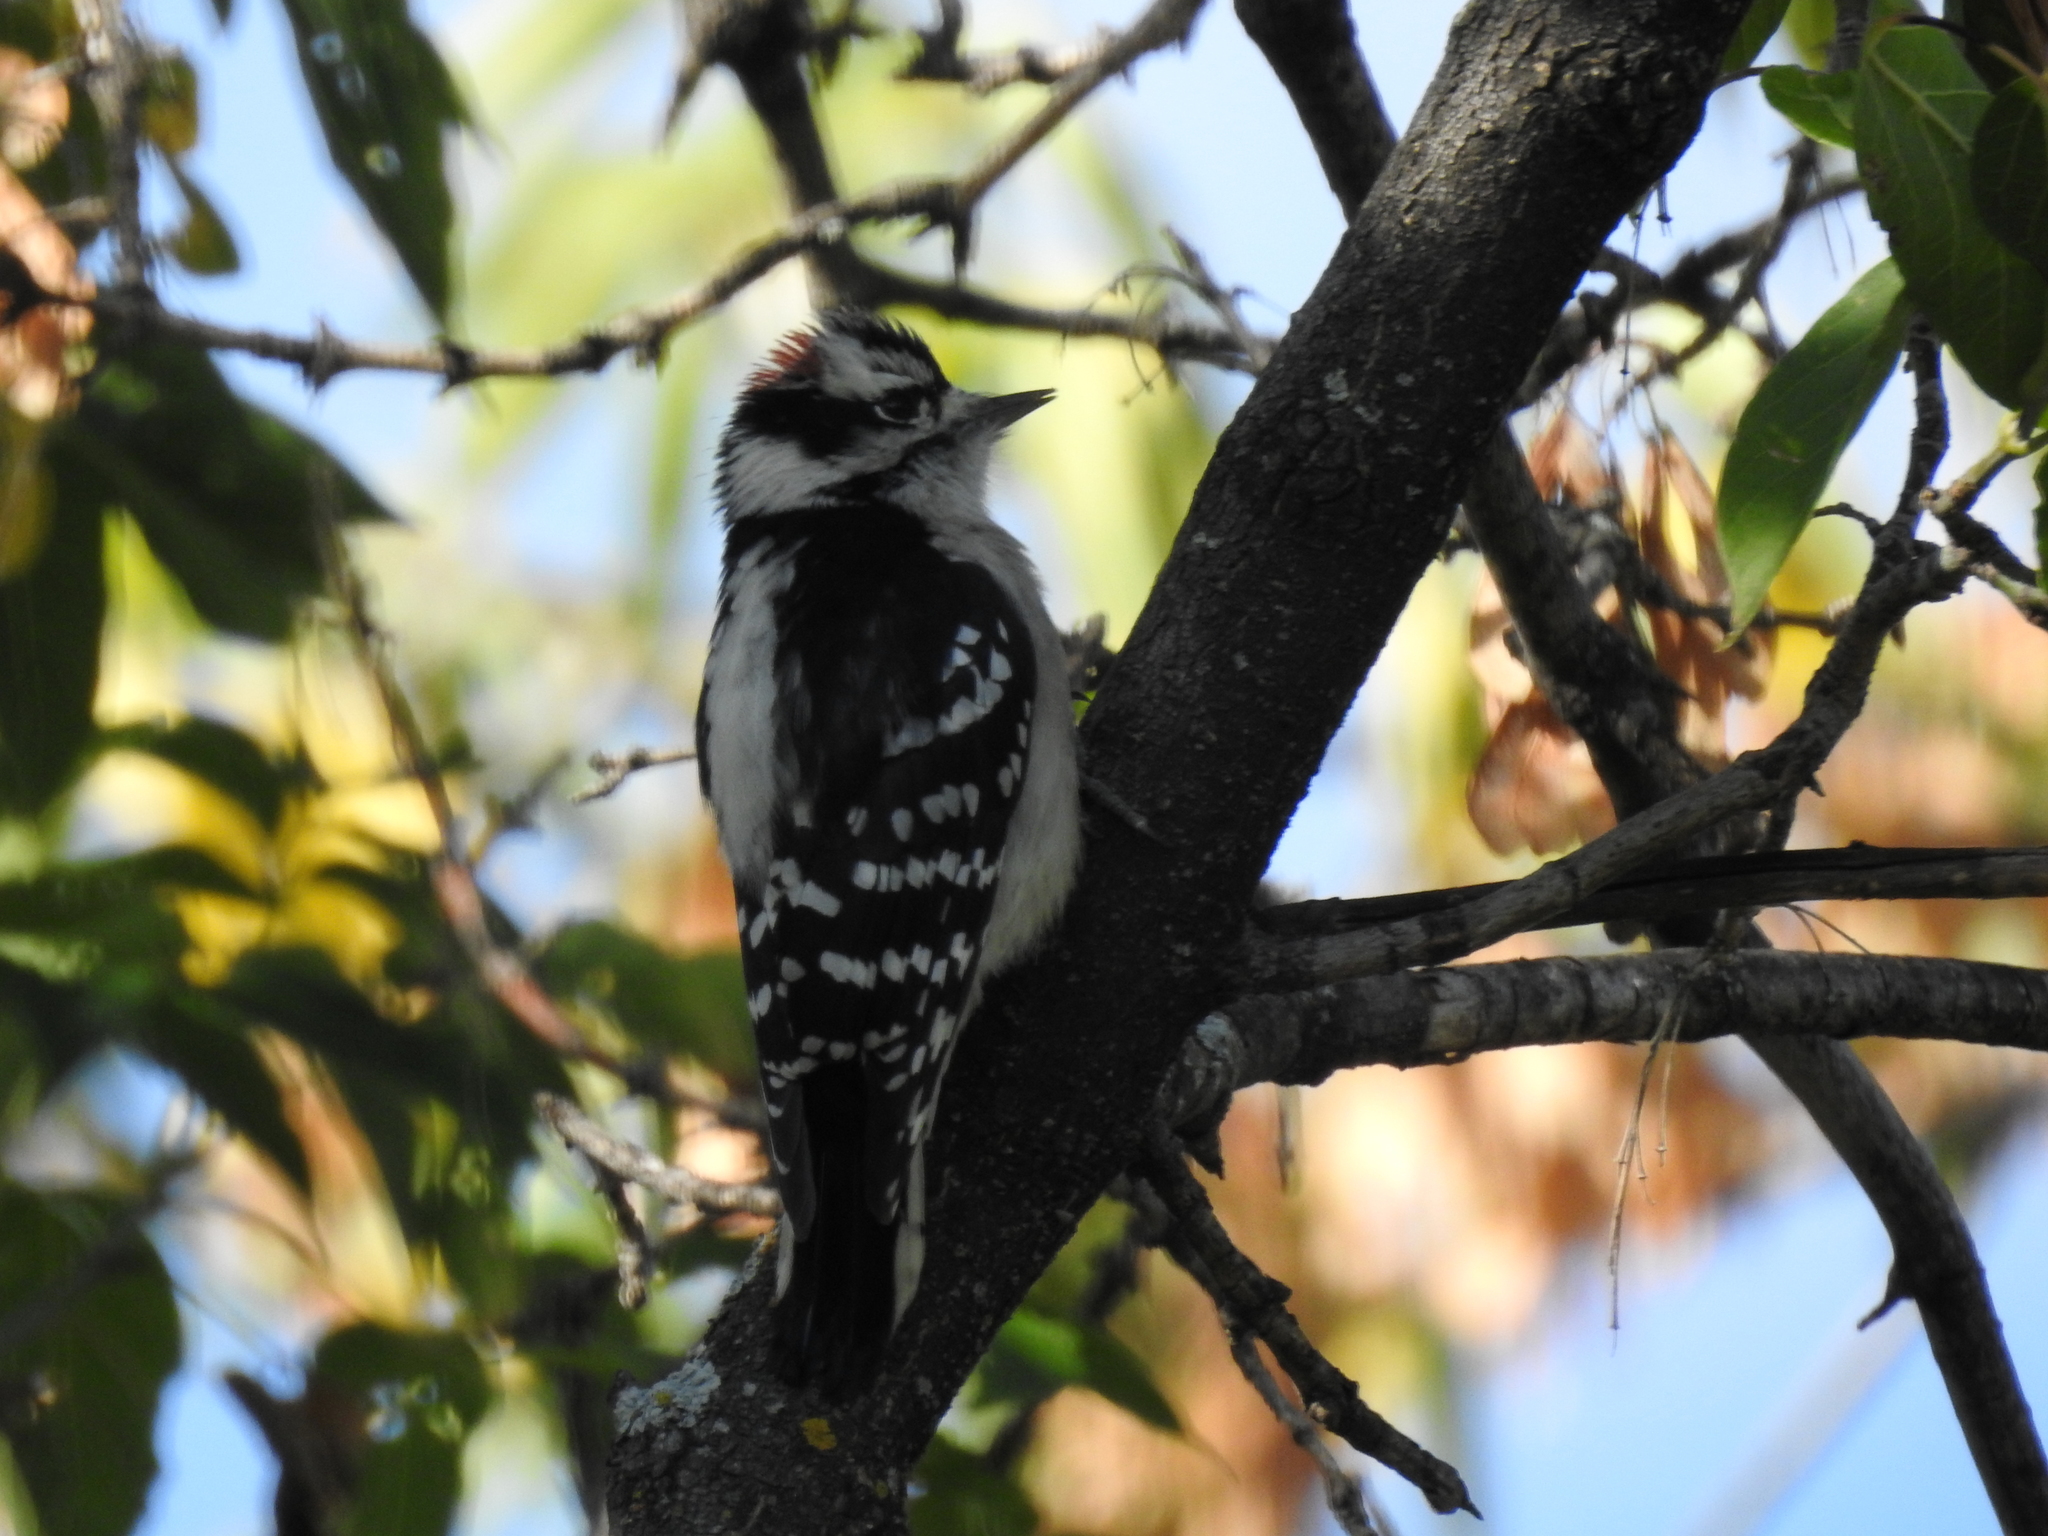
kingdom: Animalia
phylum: Chordata
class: Aves
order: Piciformes
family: Picidae
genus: Dryobates
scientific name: Dryobates pubescens
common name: Downy woodpecker
